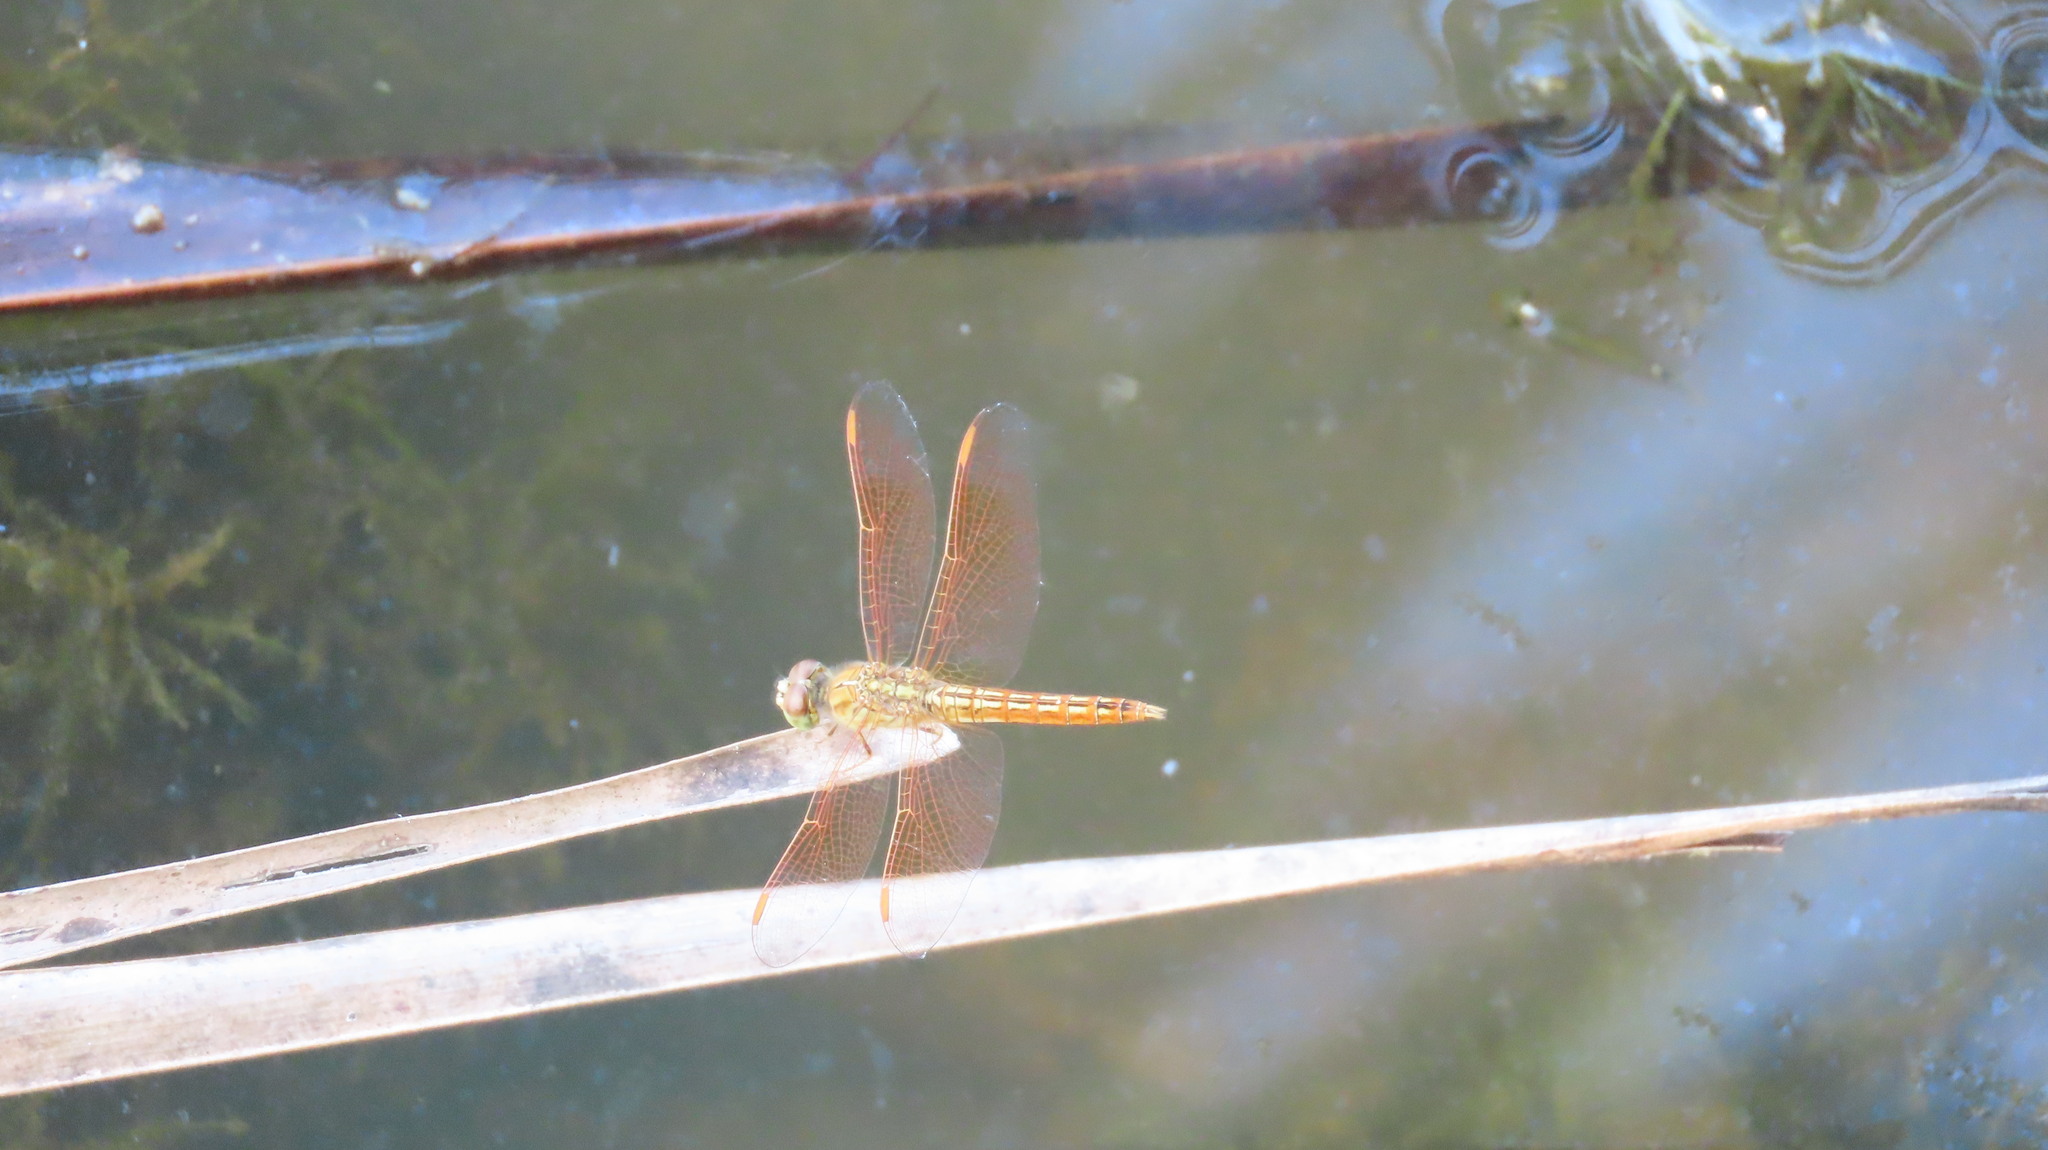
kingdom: Animalia
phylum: Arthropoda
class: Insecta
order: Odonata
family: Libellulidae
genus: Brachythemis
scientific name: Brachythemis contaminata
